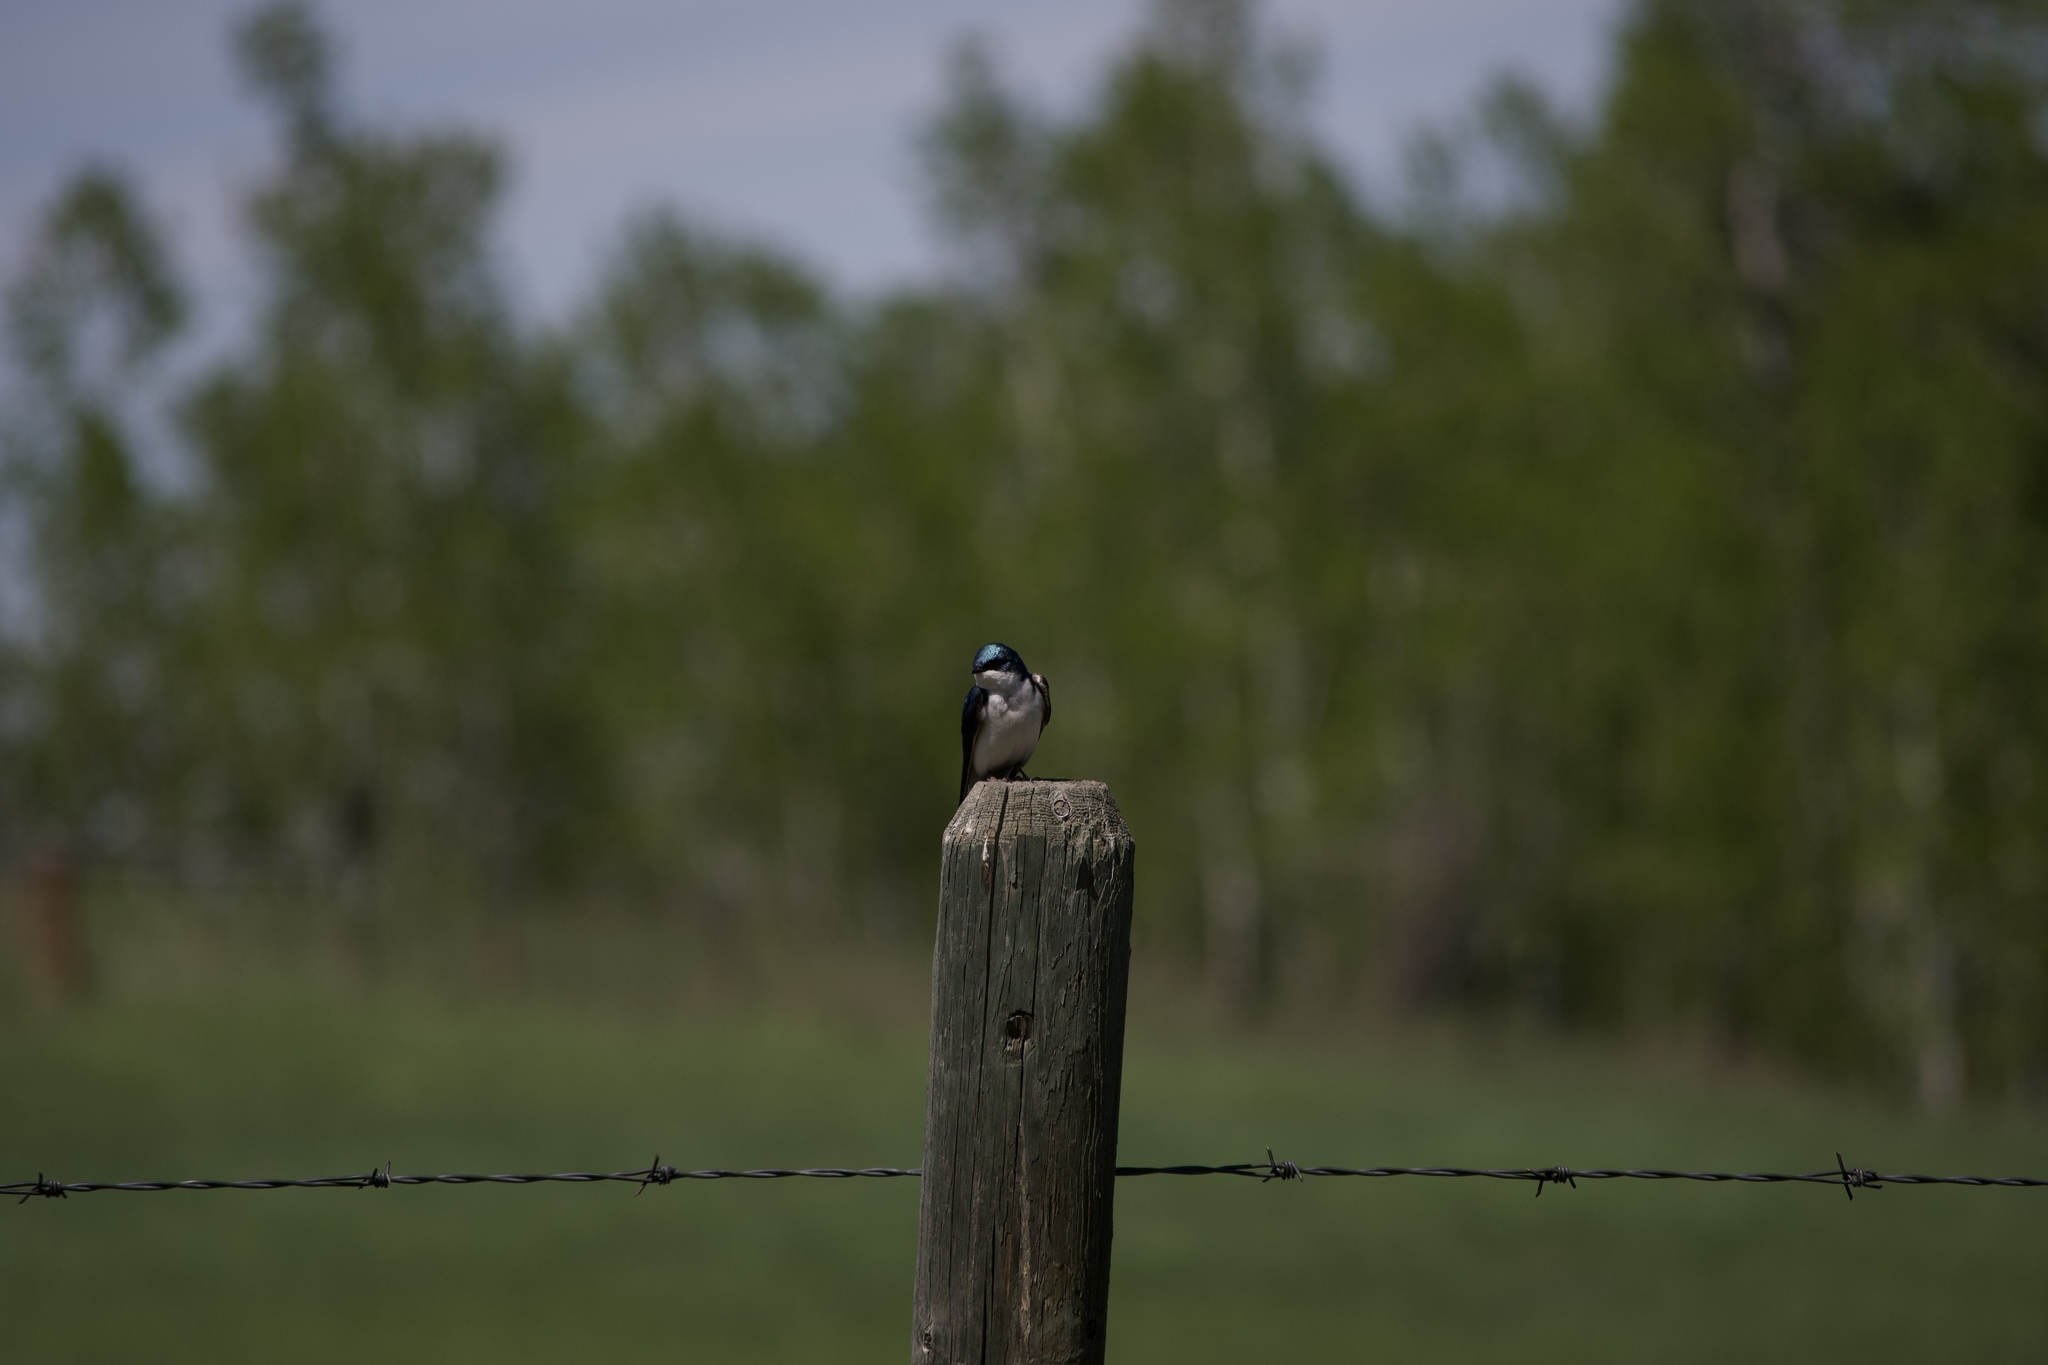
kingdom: Animalia
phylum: Chordata
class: Aves
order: Passeriformes
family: Hirundinidae
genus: Tachycineta
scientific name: Tachycineta bicolor
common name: Tree swallow
